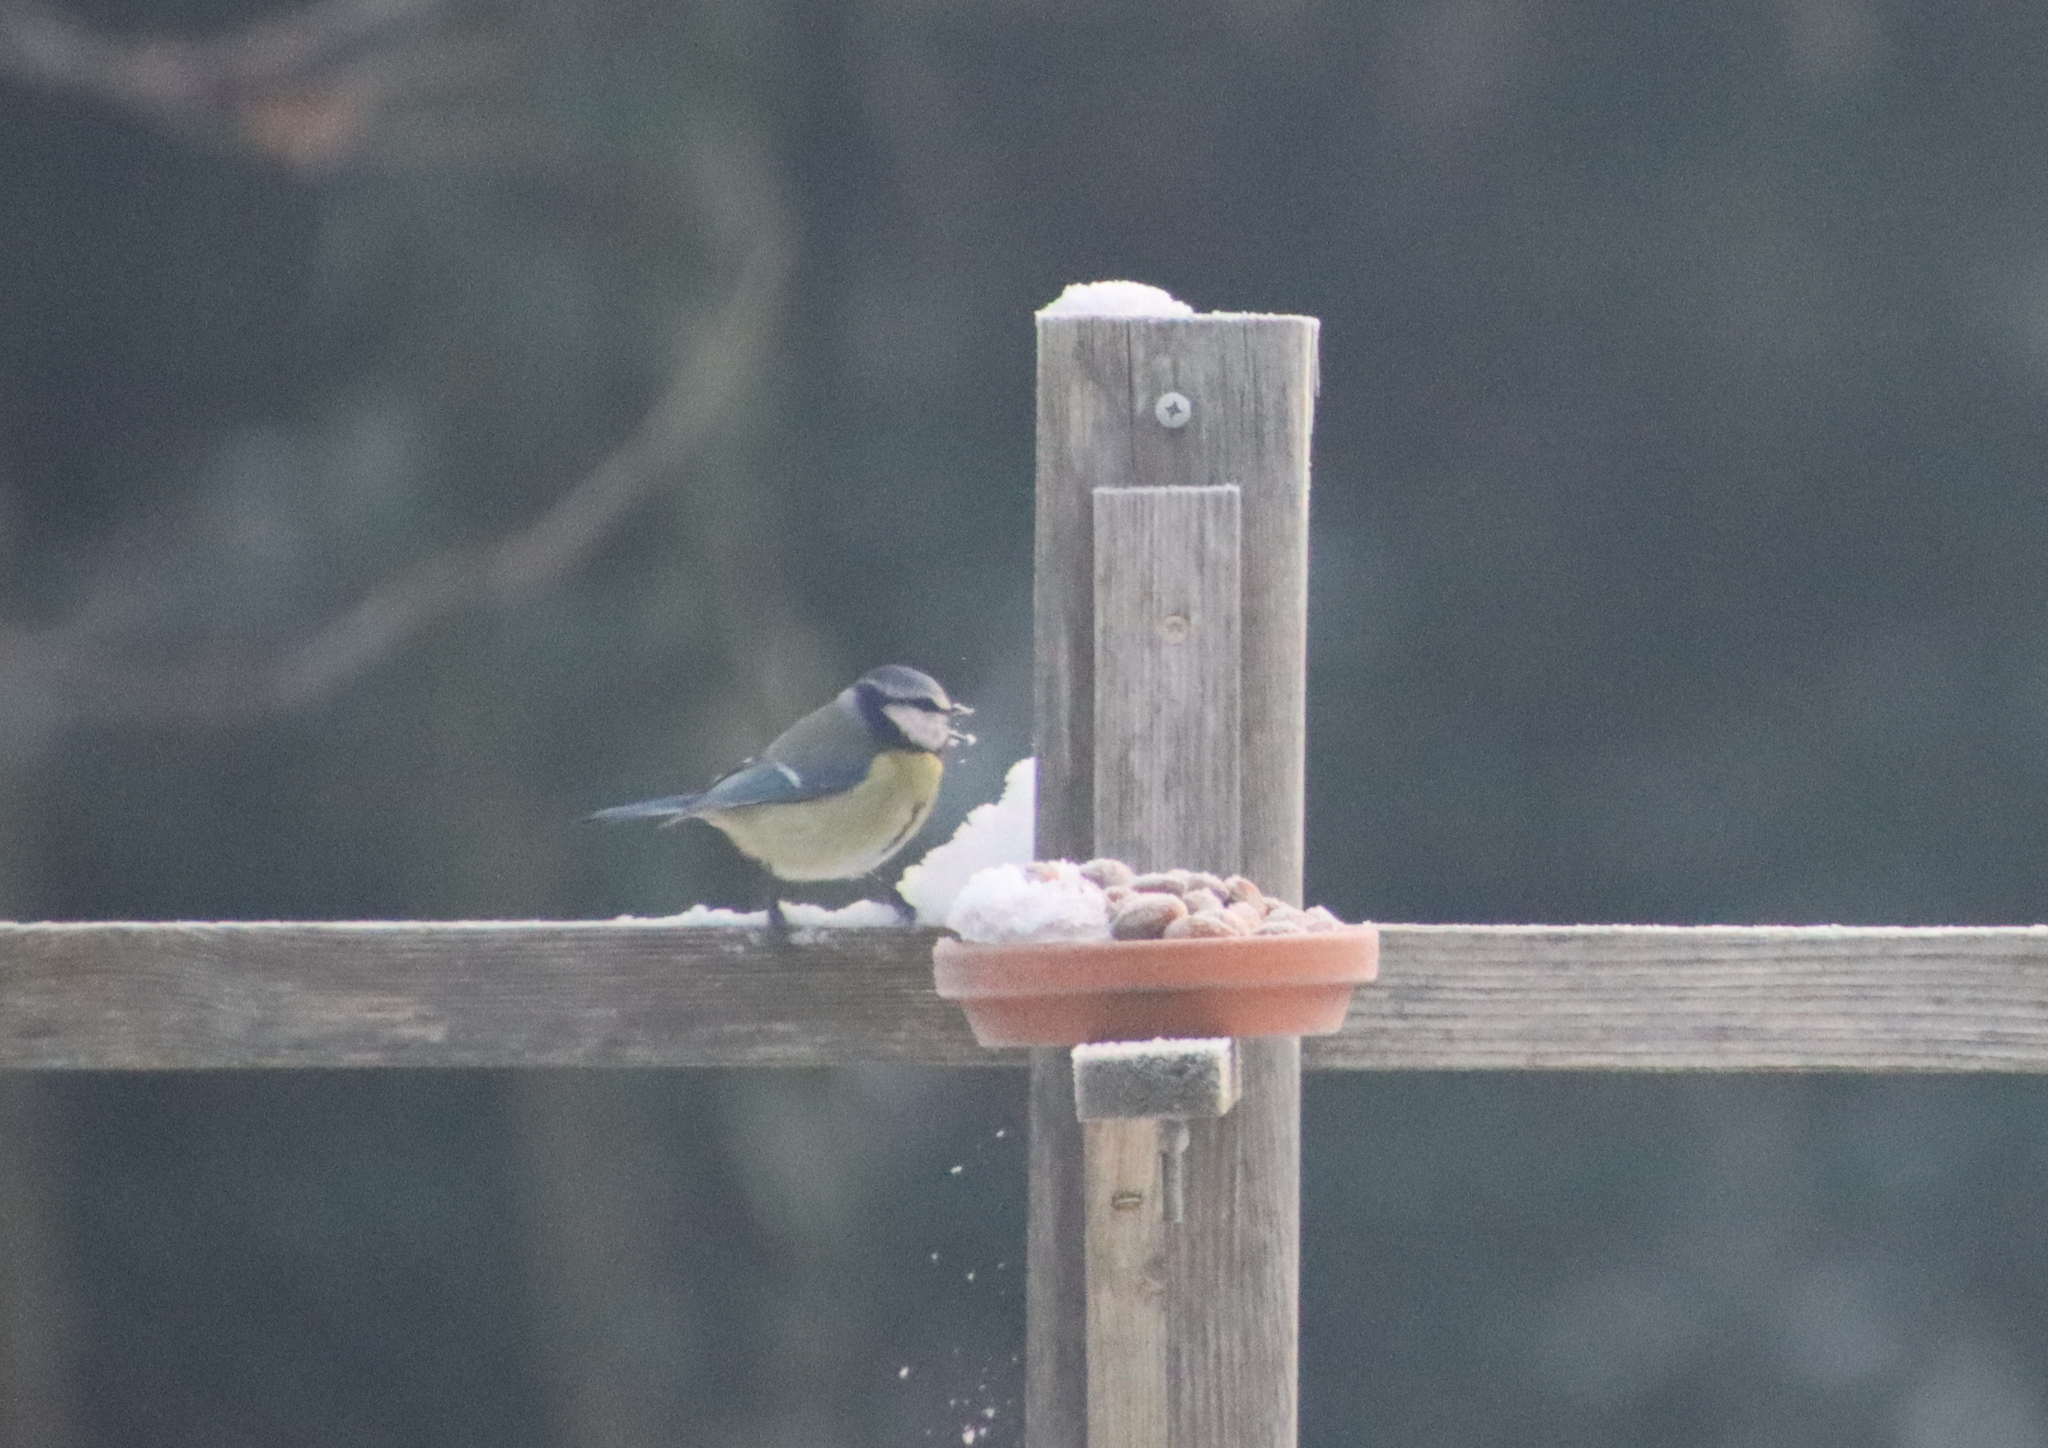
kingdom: Animalia
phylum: Chordata
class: Aves
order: Passeriformes
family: Paridae
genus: Cyanistes
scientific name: Cyanistes caeruleus
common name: Eurasian blue tit
